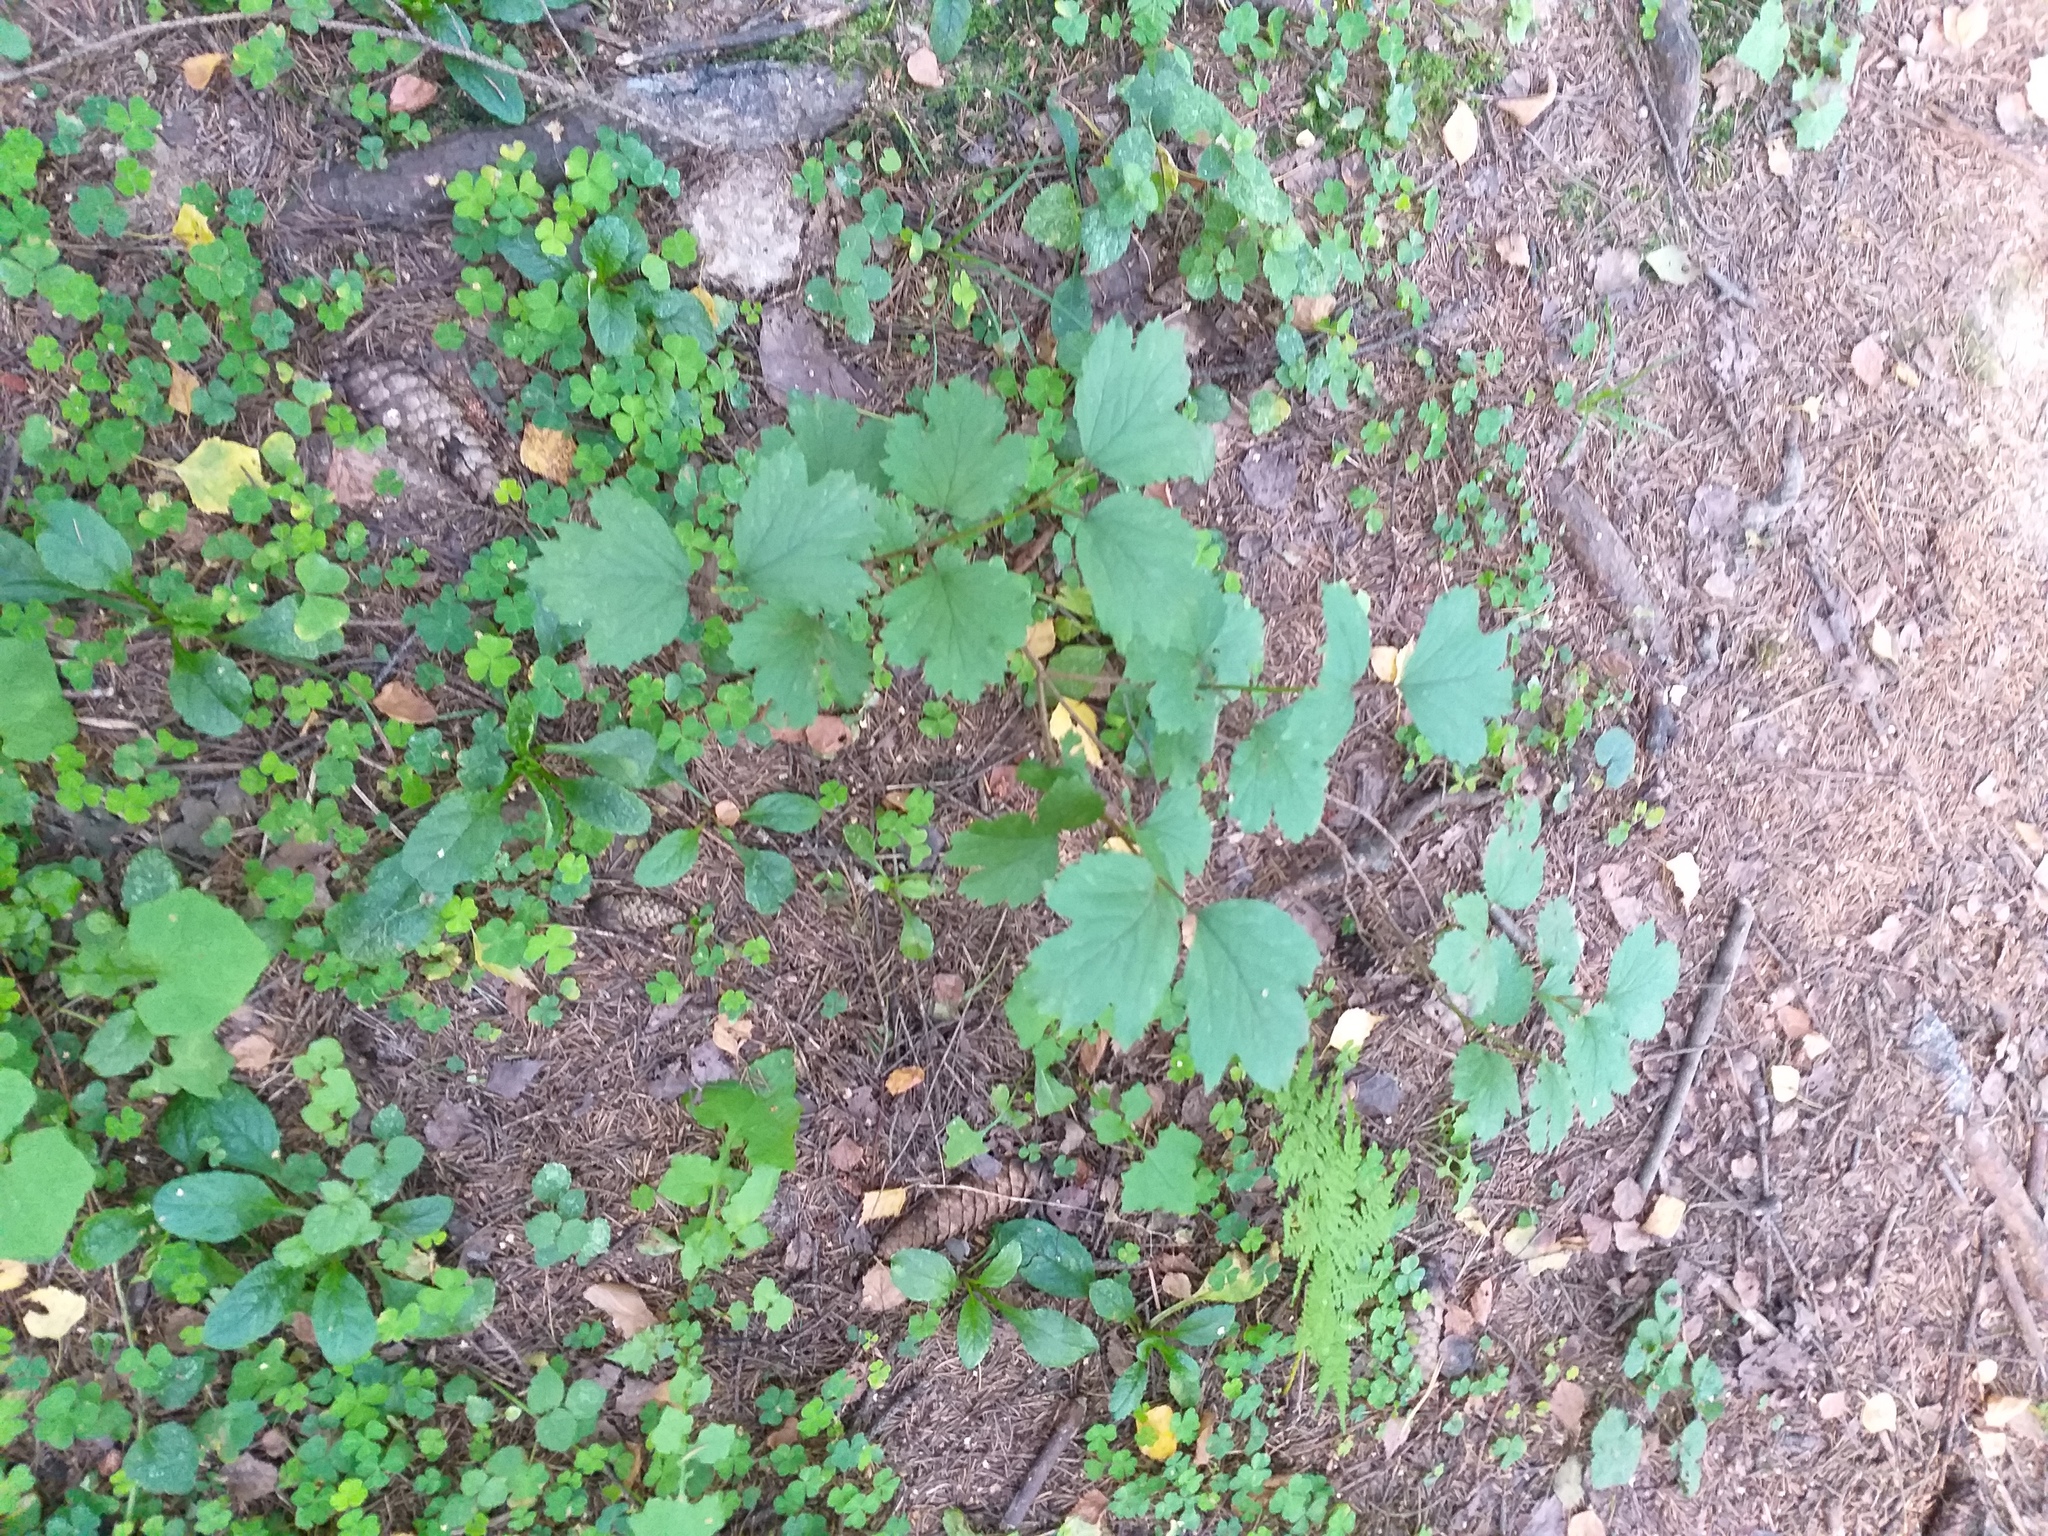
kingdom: Plantae
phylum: Tracheophyta
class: Magnoliopsida
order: Dipsacales
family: Viburnaceae
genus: Viburnum
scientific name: Viburnum opulus
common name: Guelder-rose
